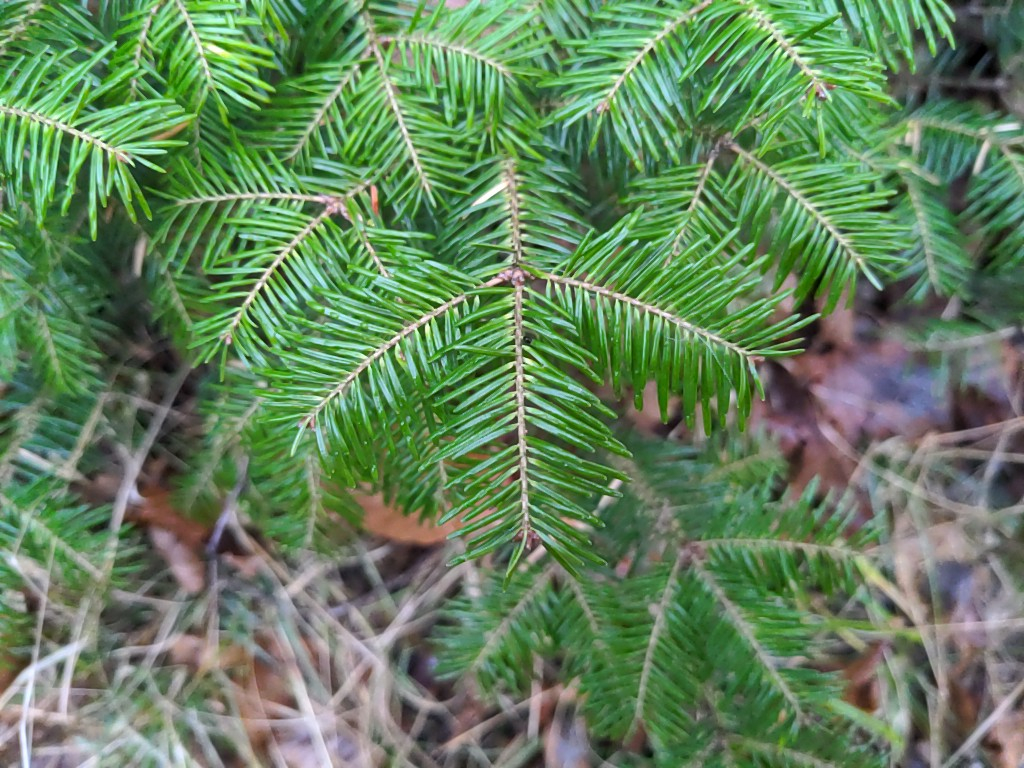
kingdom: Plantae
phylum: Tracheophyta
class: Pinopsida
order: Pinales
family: Pinaceae
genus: Abies
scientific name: Abies balsamea
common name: Balsam fir
